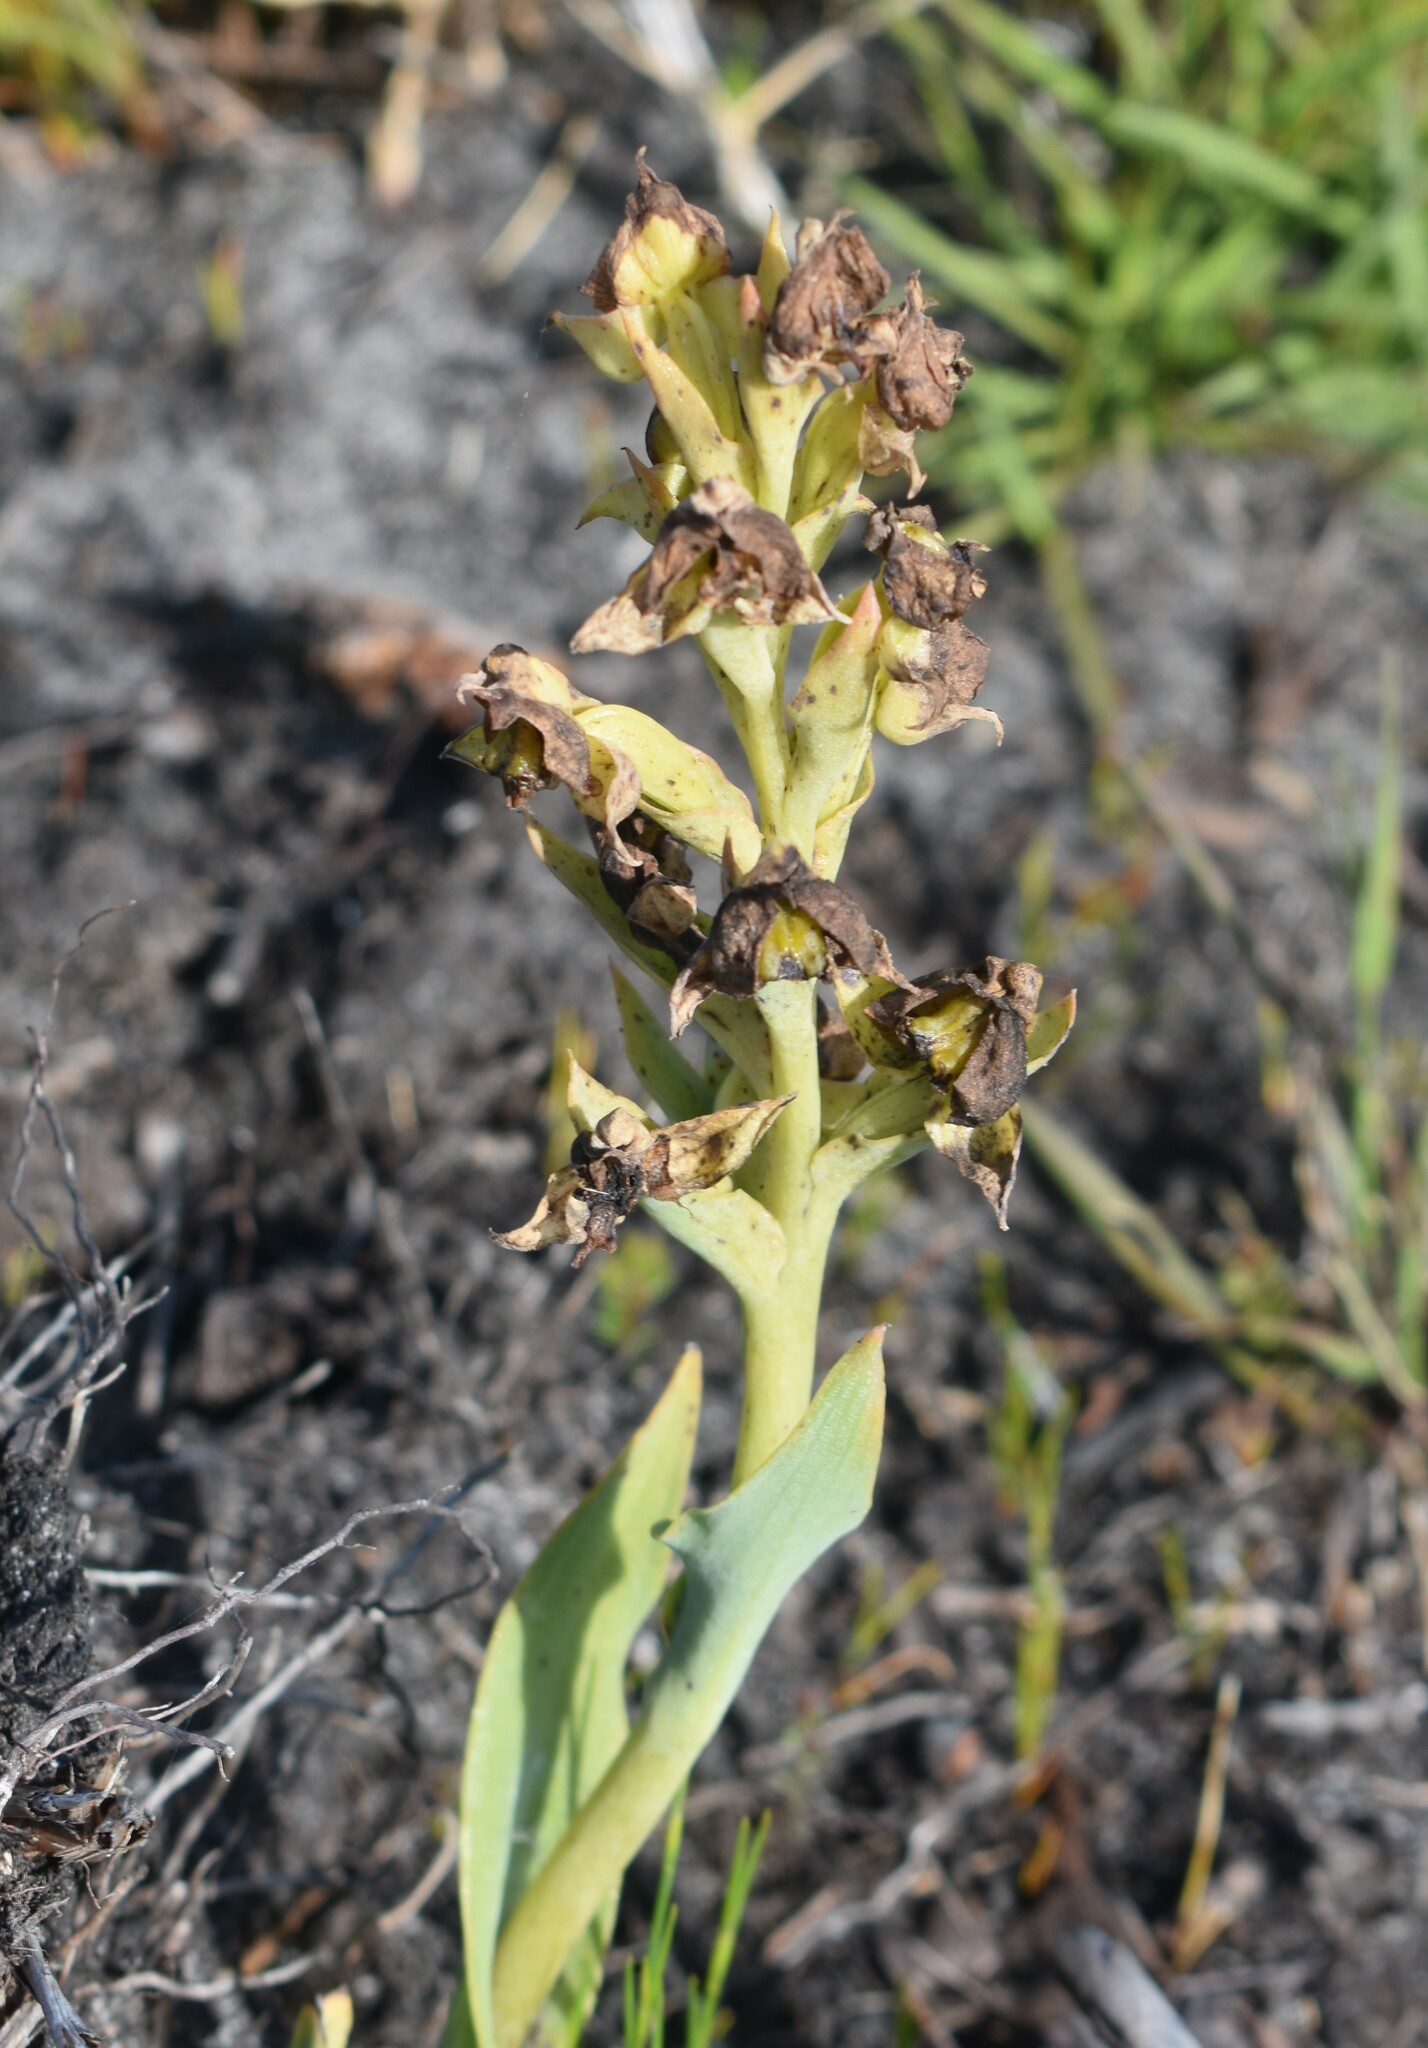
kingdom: Plantae
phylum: Tracheophyta
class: Liliopsida
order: Asparagales
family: Orchidaceae
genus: Pterygodium
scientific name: Pterygodium acutifolium
